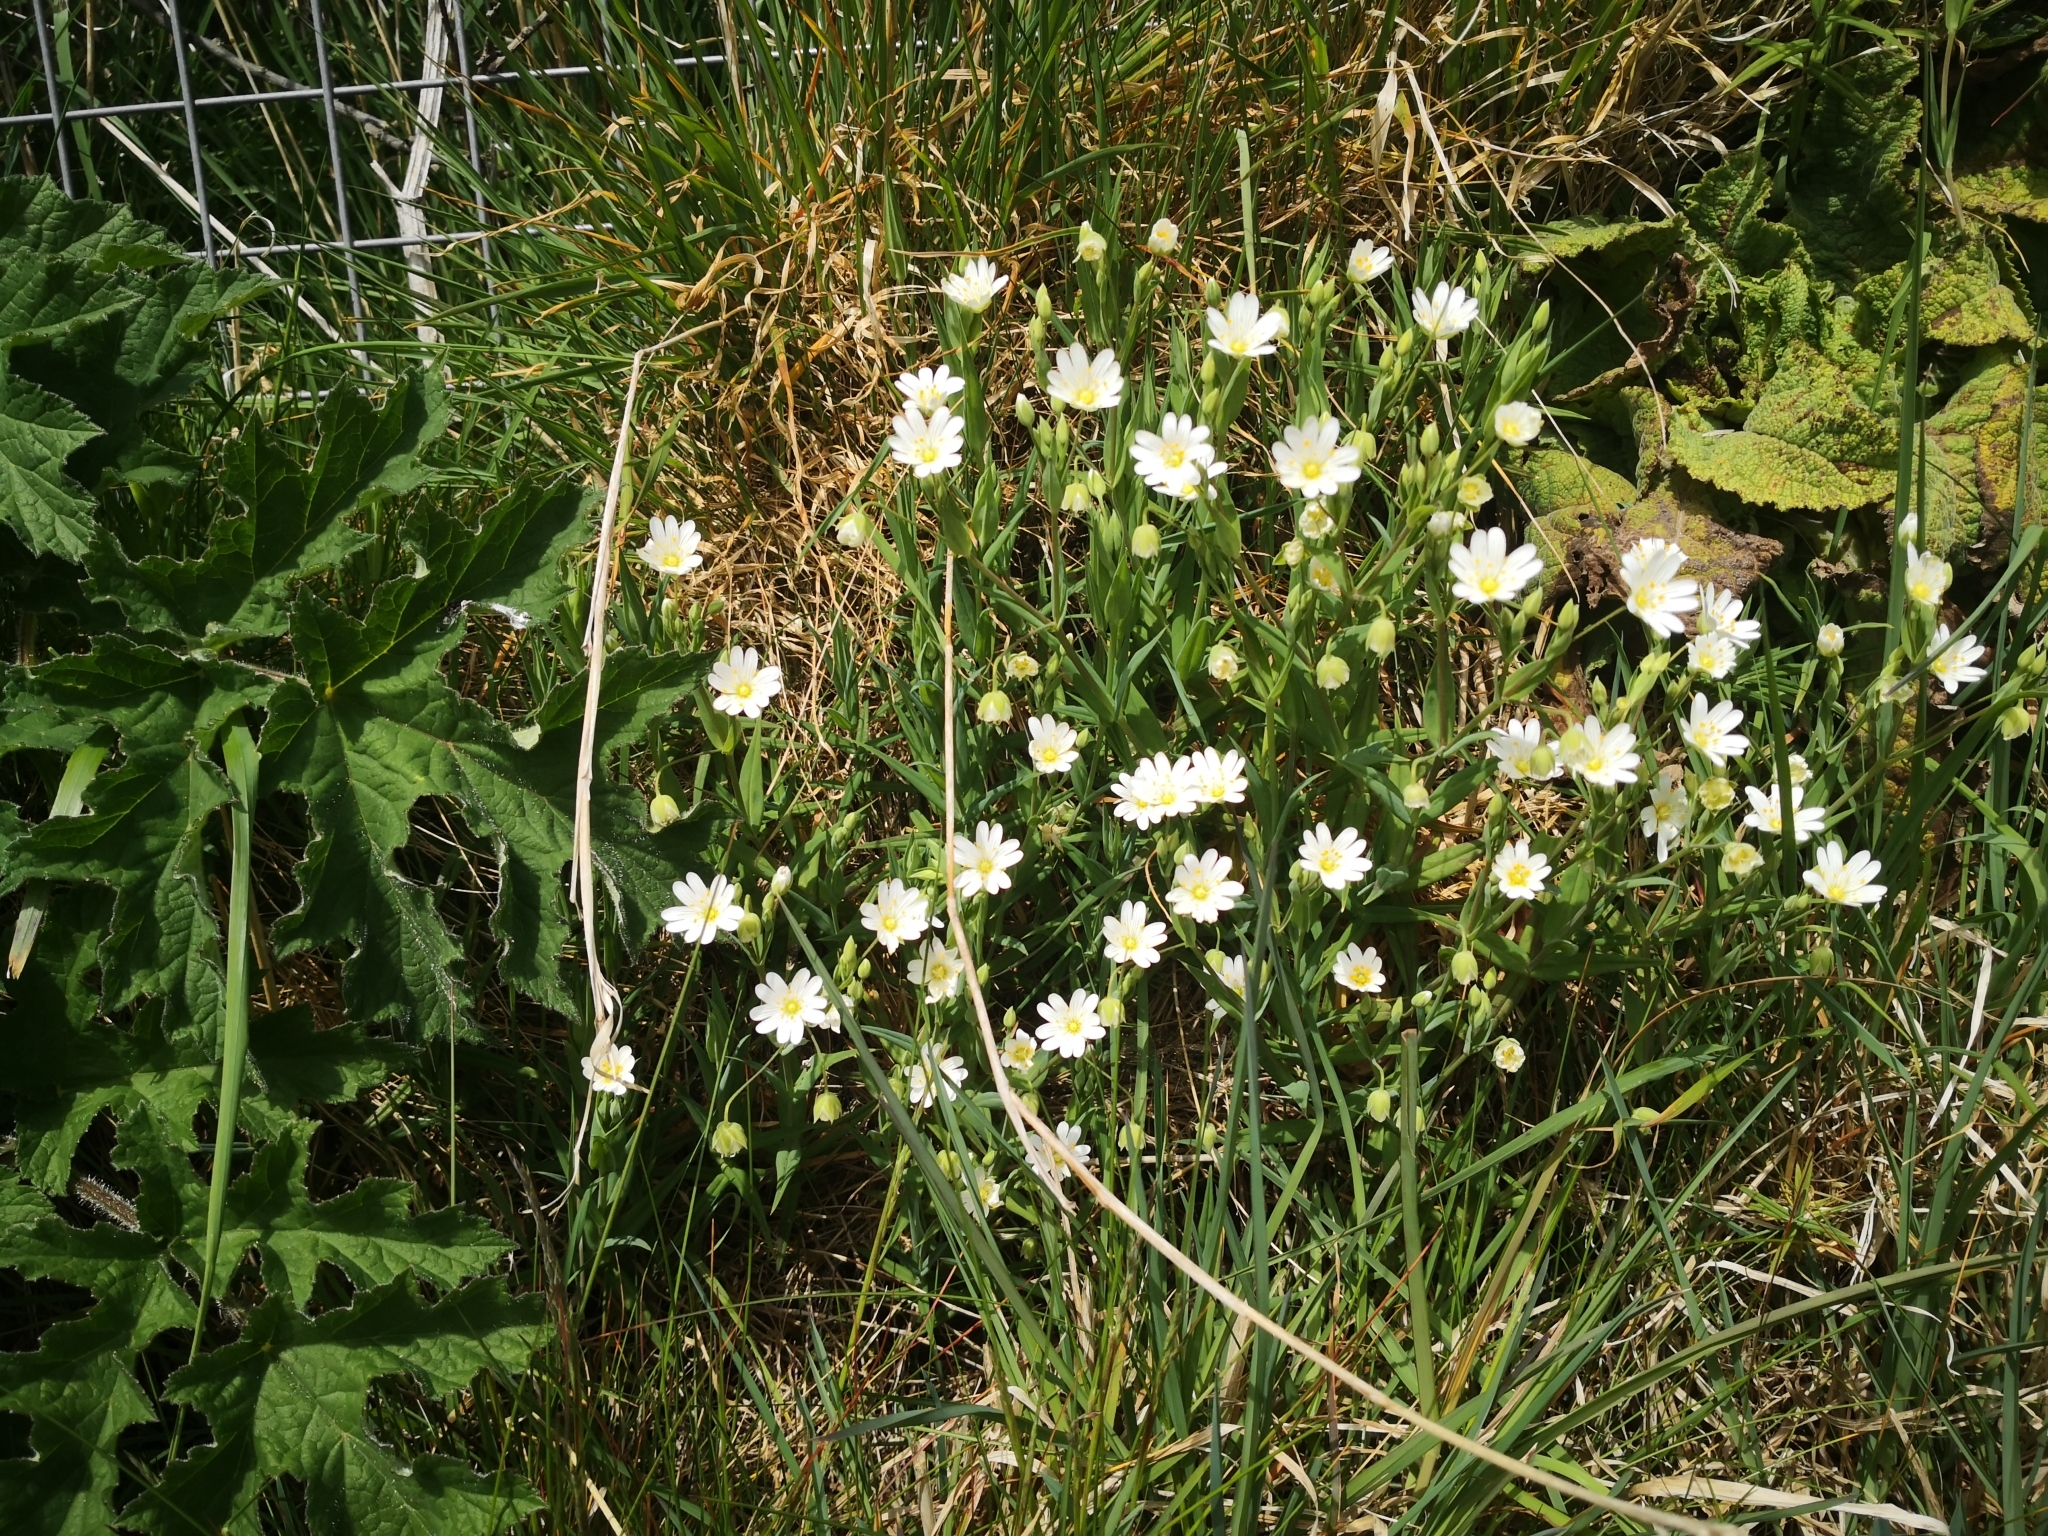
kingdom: Plantae
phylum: Tracheophyta
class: Magnoliopsida
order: Caryophyllales
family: Caryophyllaceae
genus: Rabelera
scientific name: Rabelera holostea
